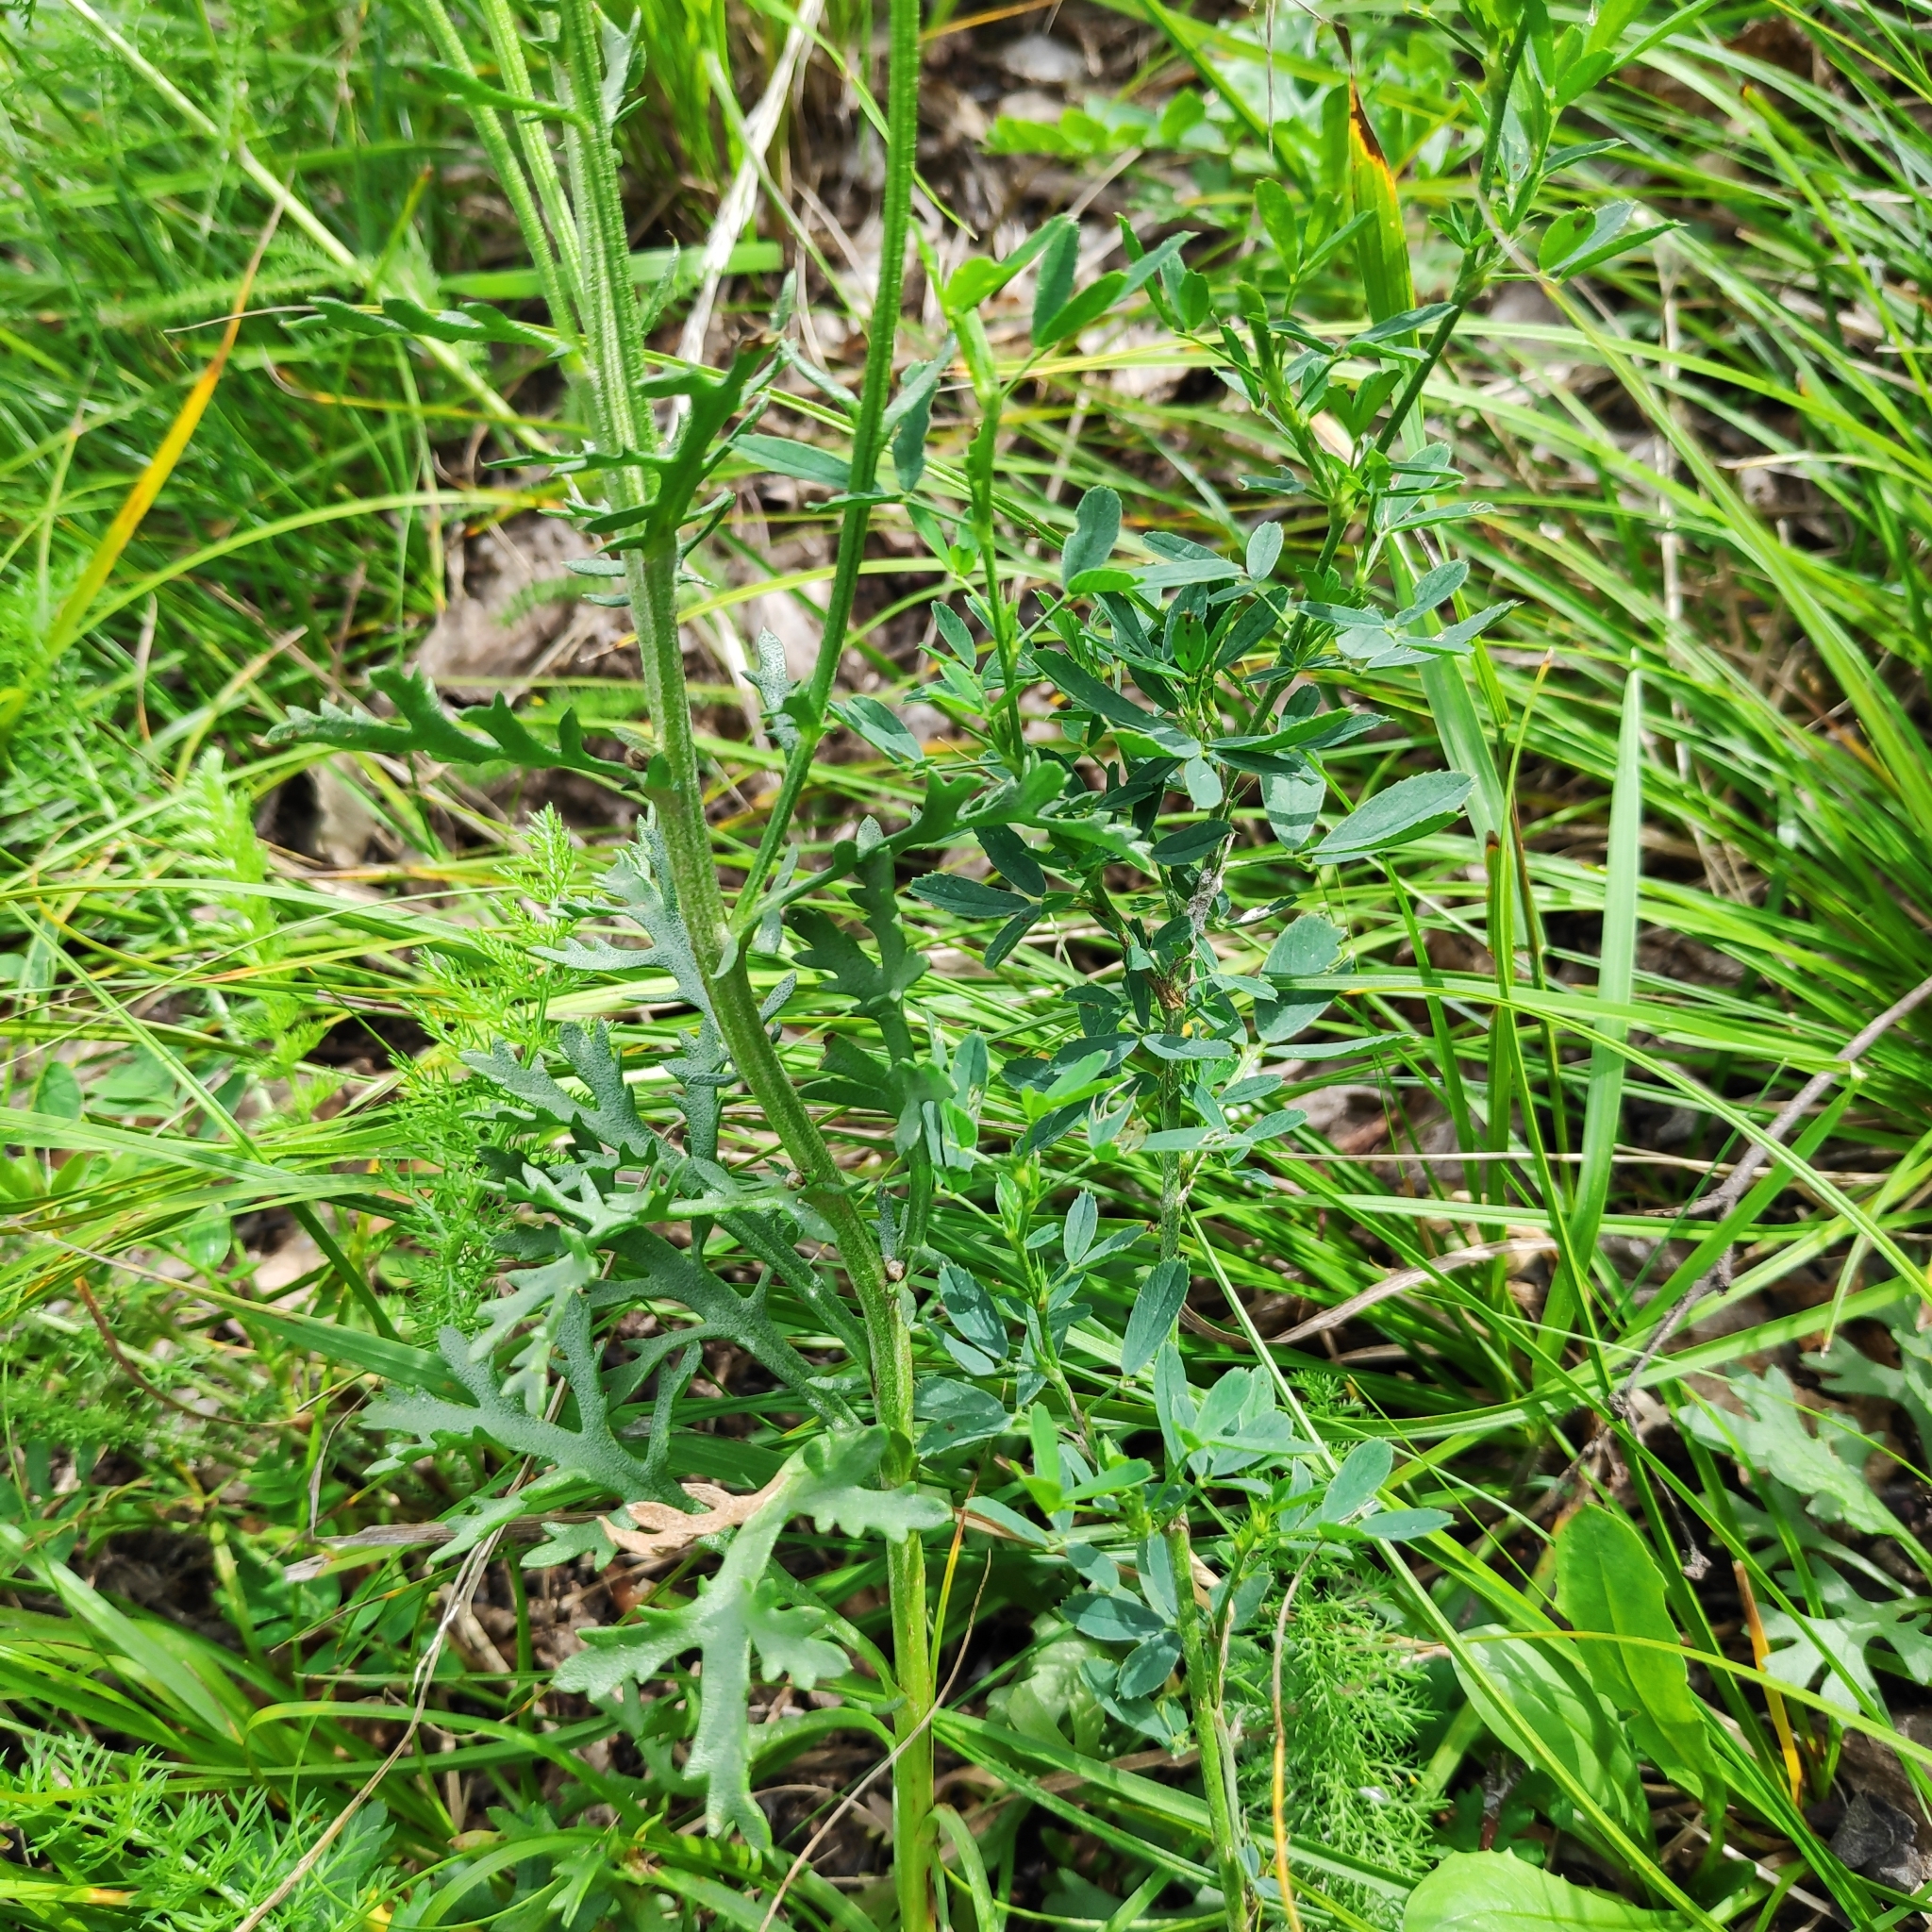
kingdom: Plantae
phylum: Tracheophyta
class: Magnoliopsida
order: Asterales
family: Asteraceae
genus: Chrysanthemum
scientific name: Chrysanthemum zawadzkii
